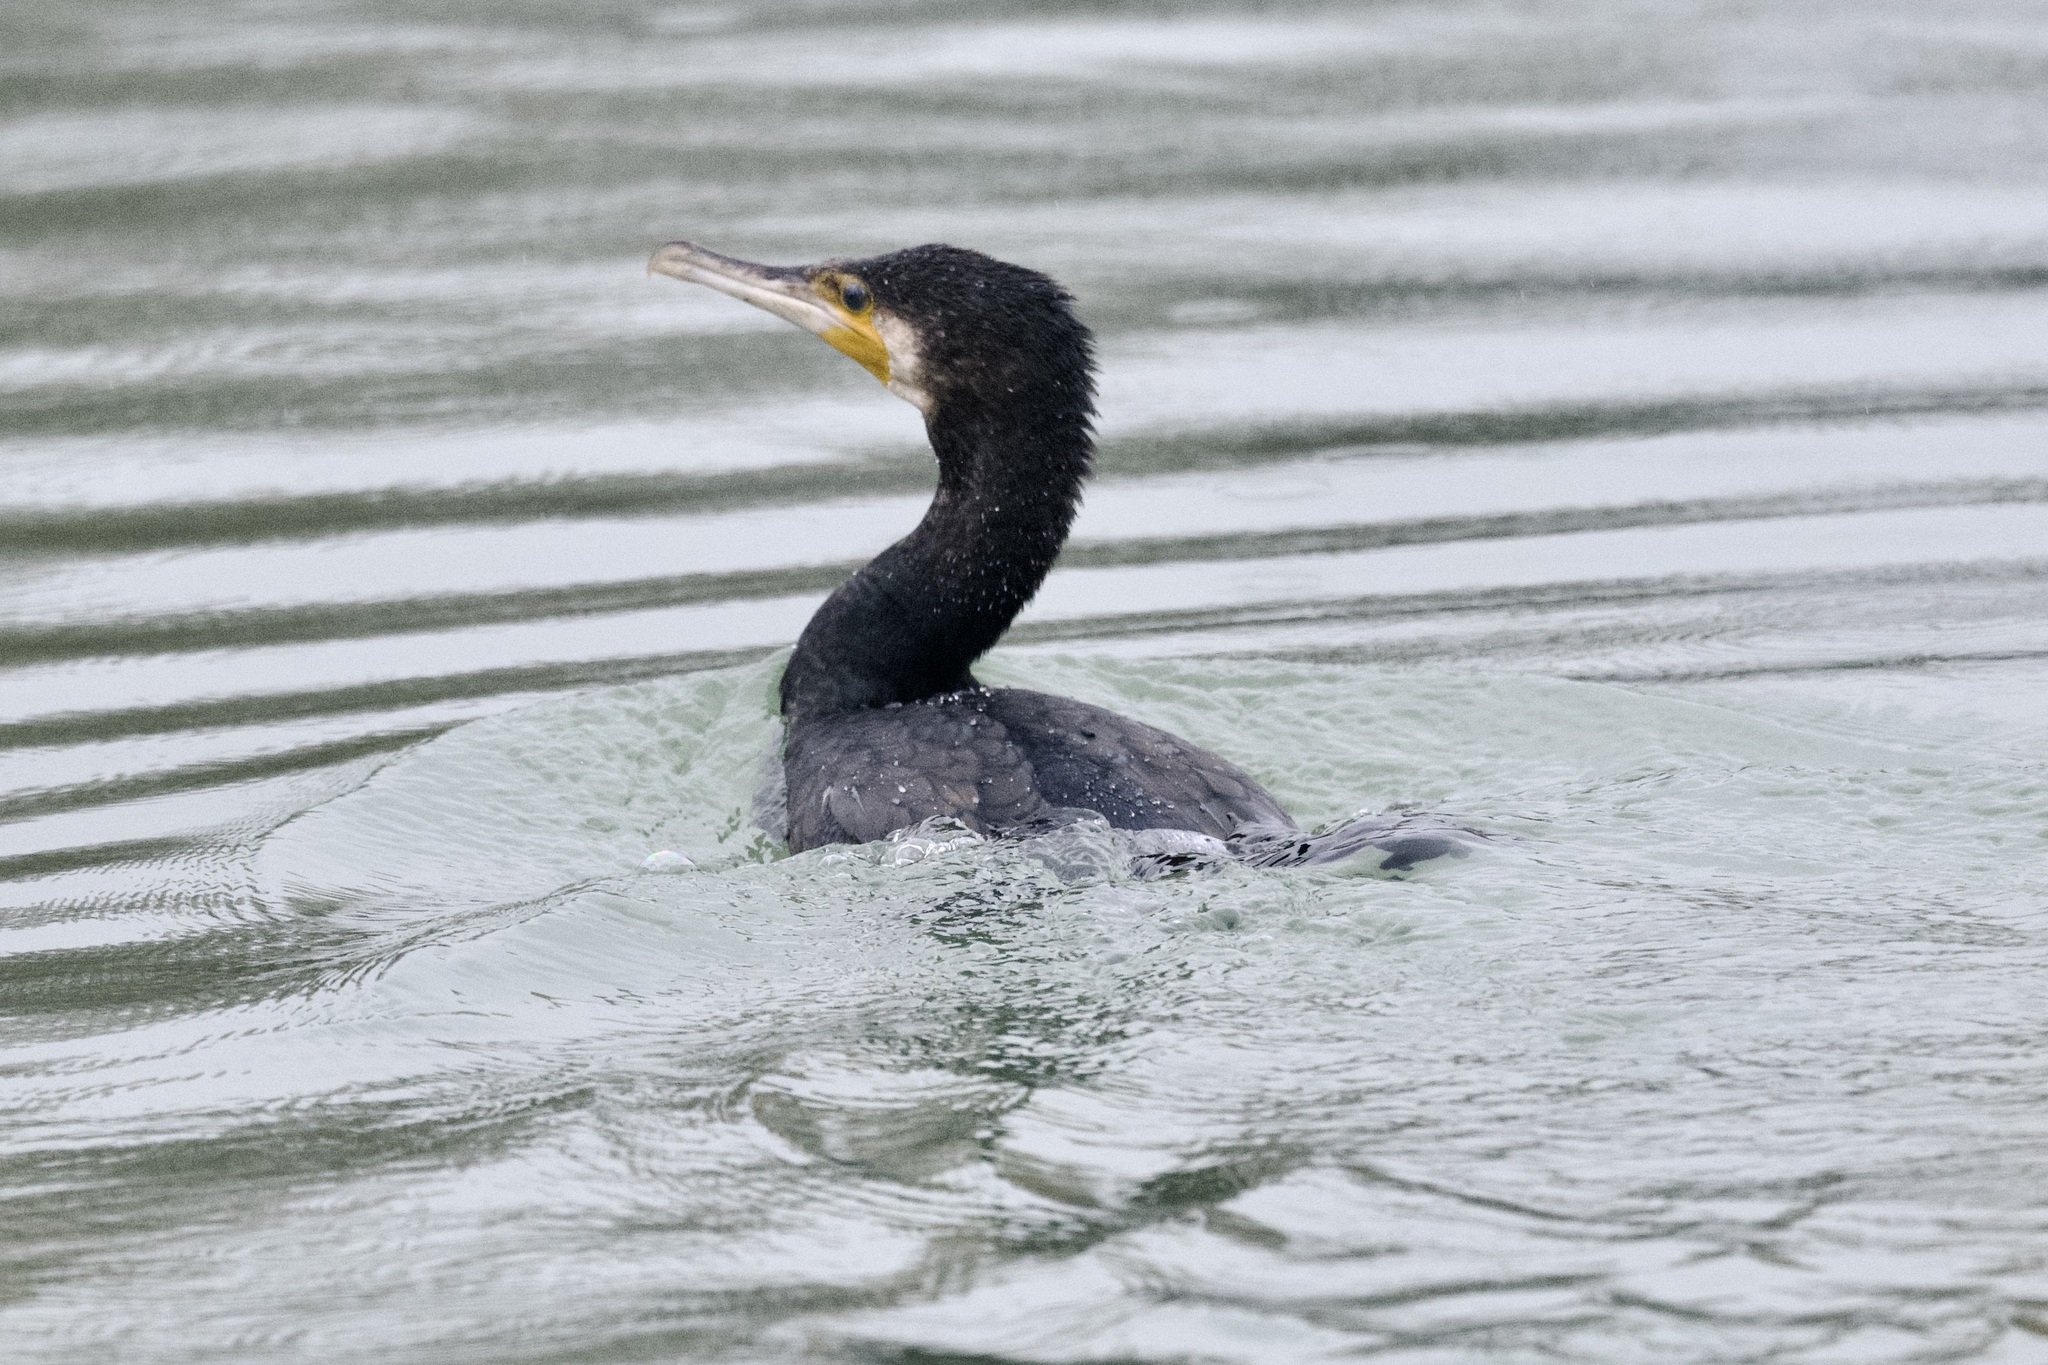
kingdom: Animalia
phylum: Chordata
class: Aves
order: Suliformes
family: Phalacrocoracidae
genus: Phalacrocorax
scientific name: Phalacrocorax carbo
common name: Great cormorant
